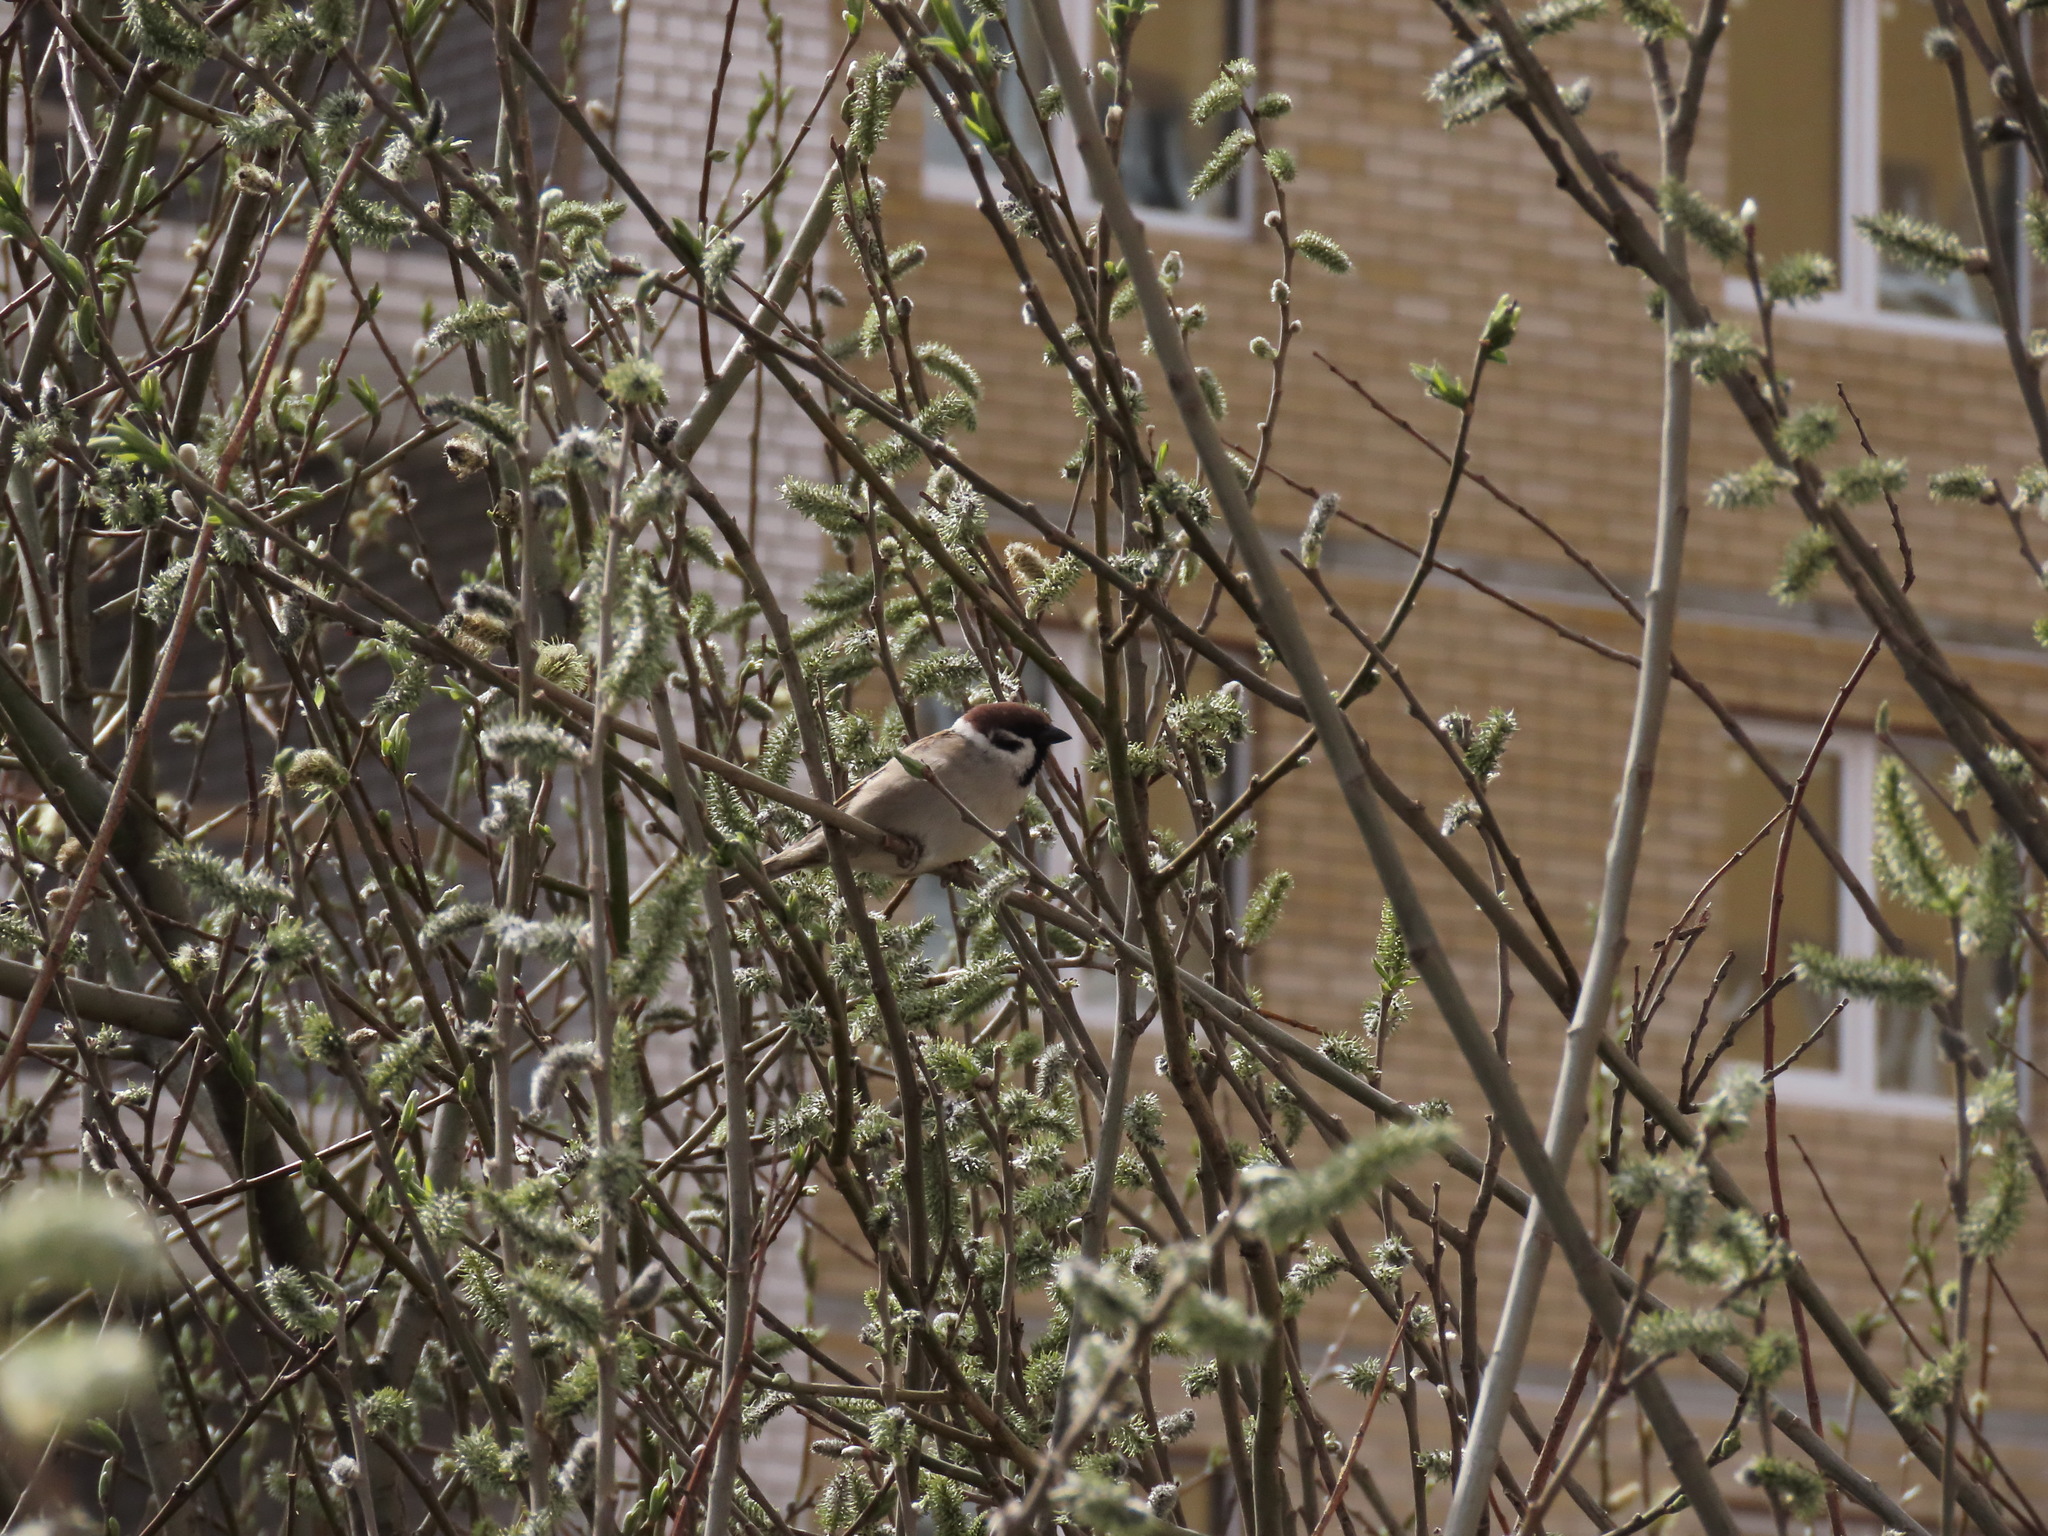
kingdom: Animalia
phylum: Chordata
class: Aves
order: Passeriformes
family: Passeridae
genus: Passer
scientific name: Passer montanus
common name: Eurasian tree sparrow
